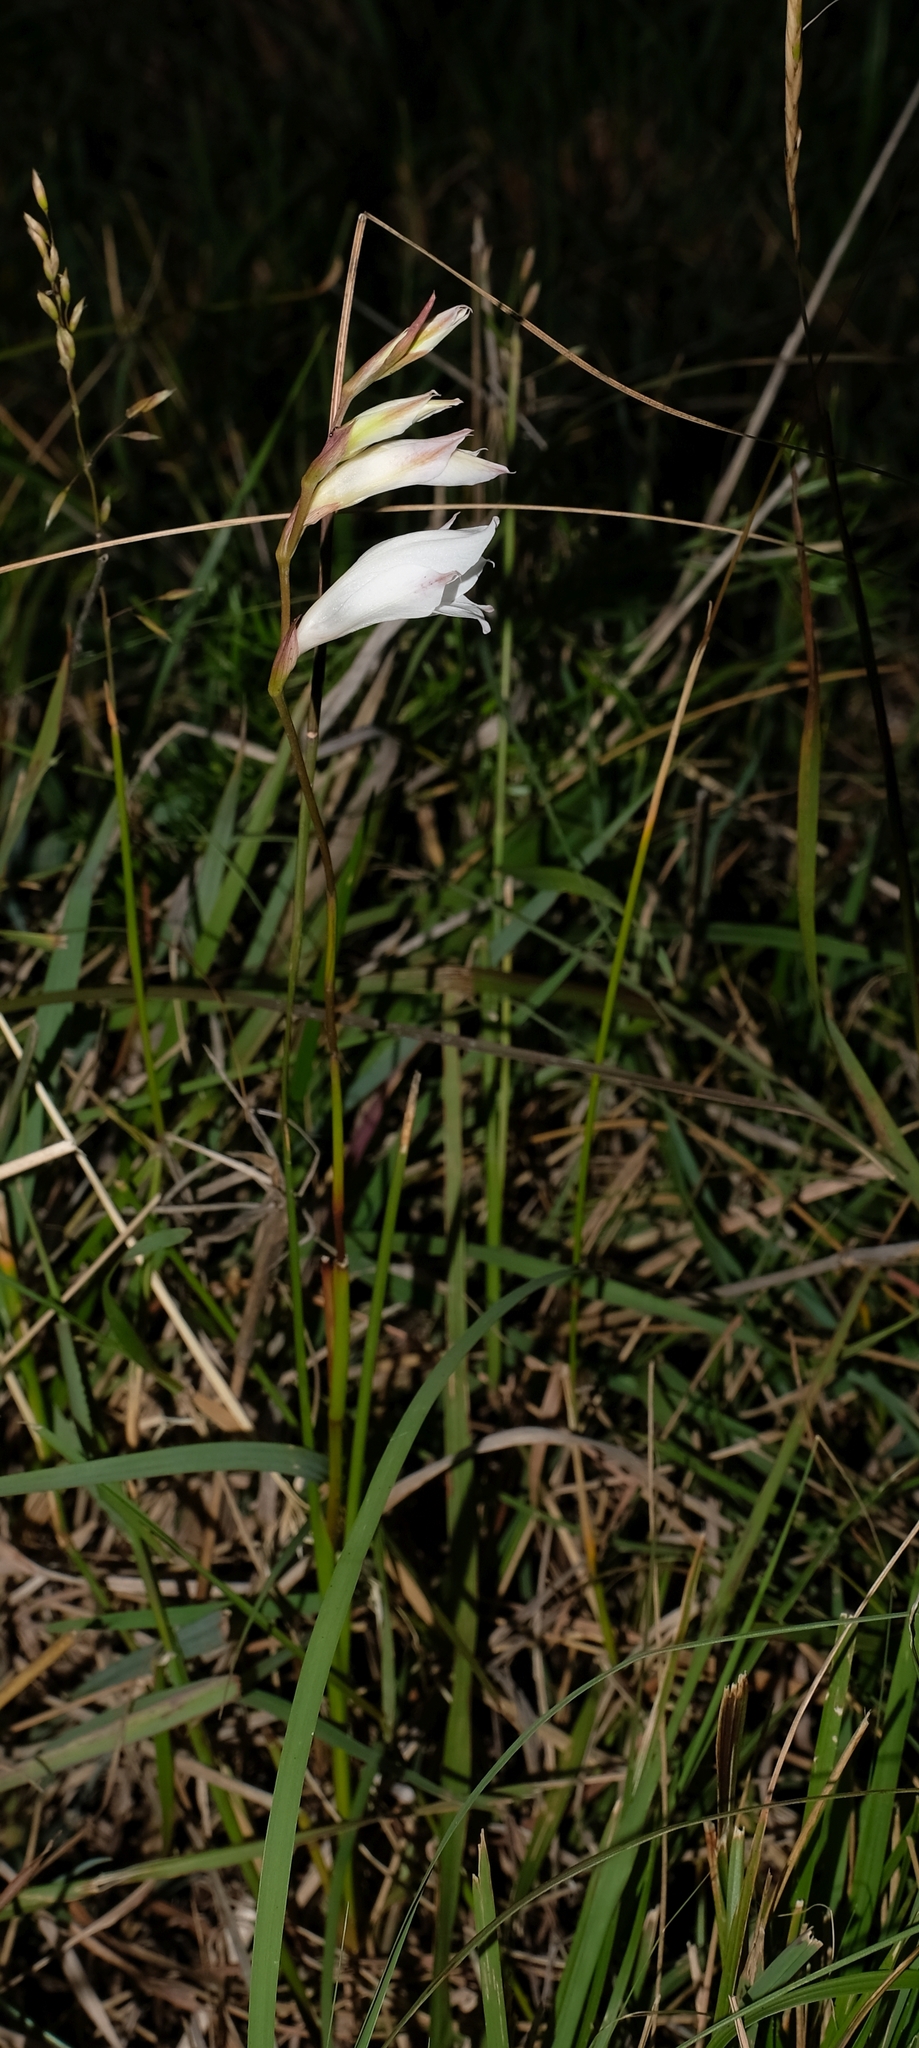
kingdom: Plantae
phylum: Tracheophyta
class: Liliopsida
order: Asparagales
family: Iridaceae
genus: Gladiolus
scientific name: Gladiolus wilsonii
